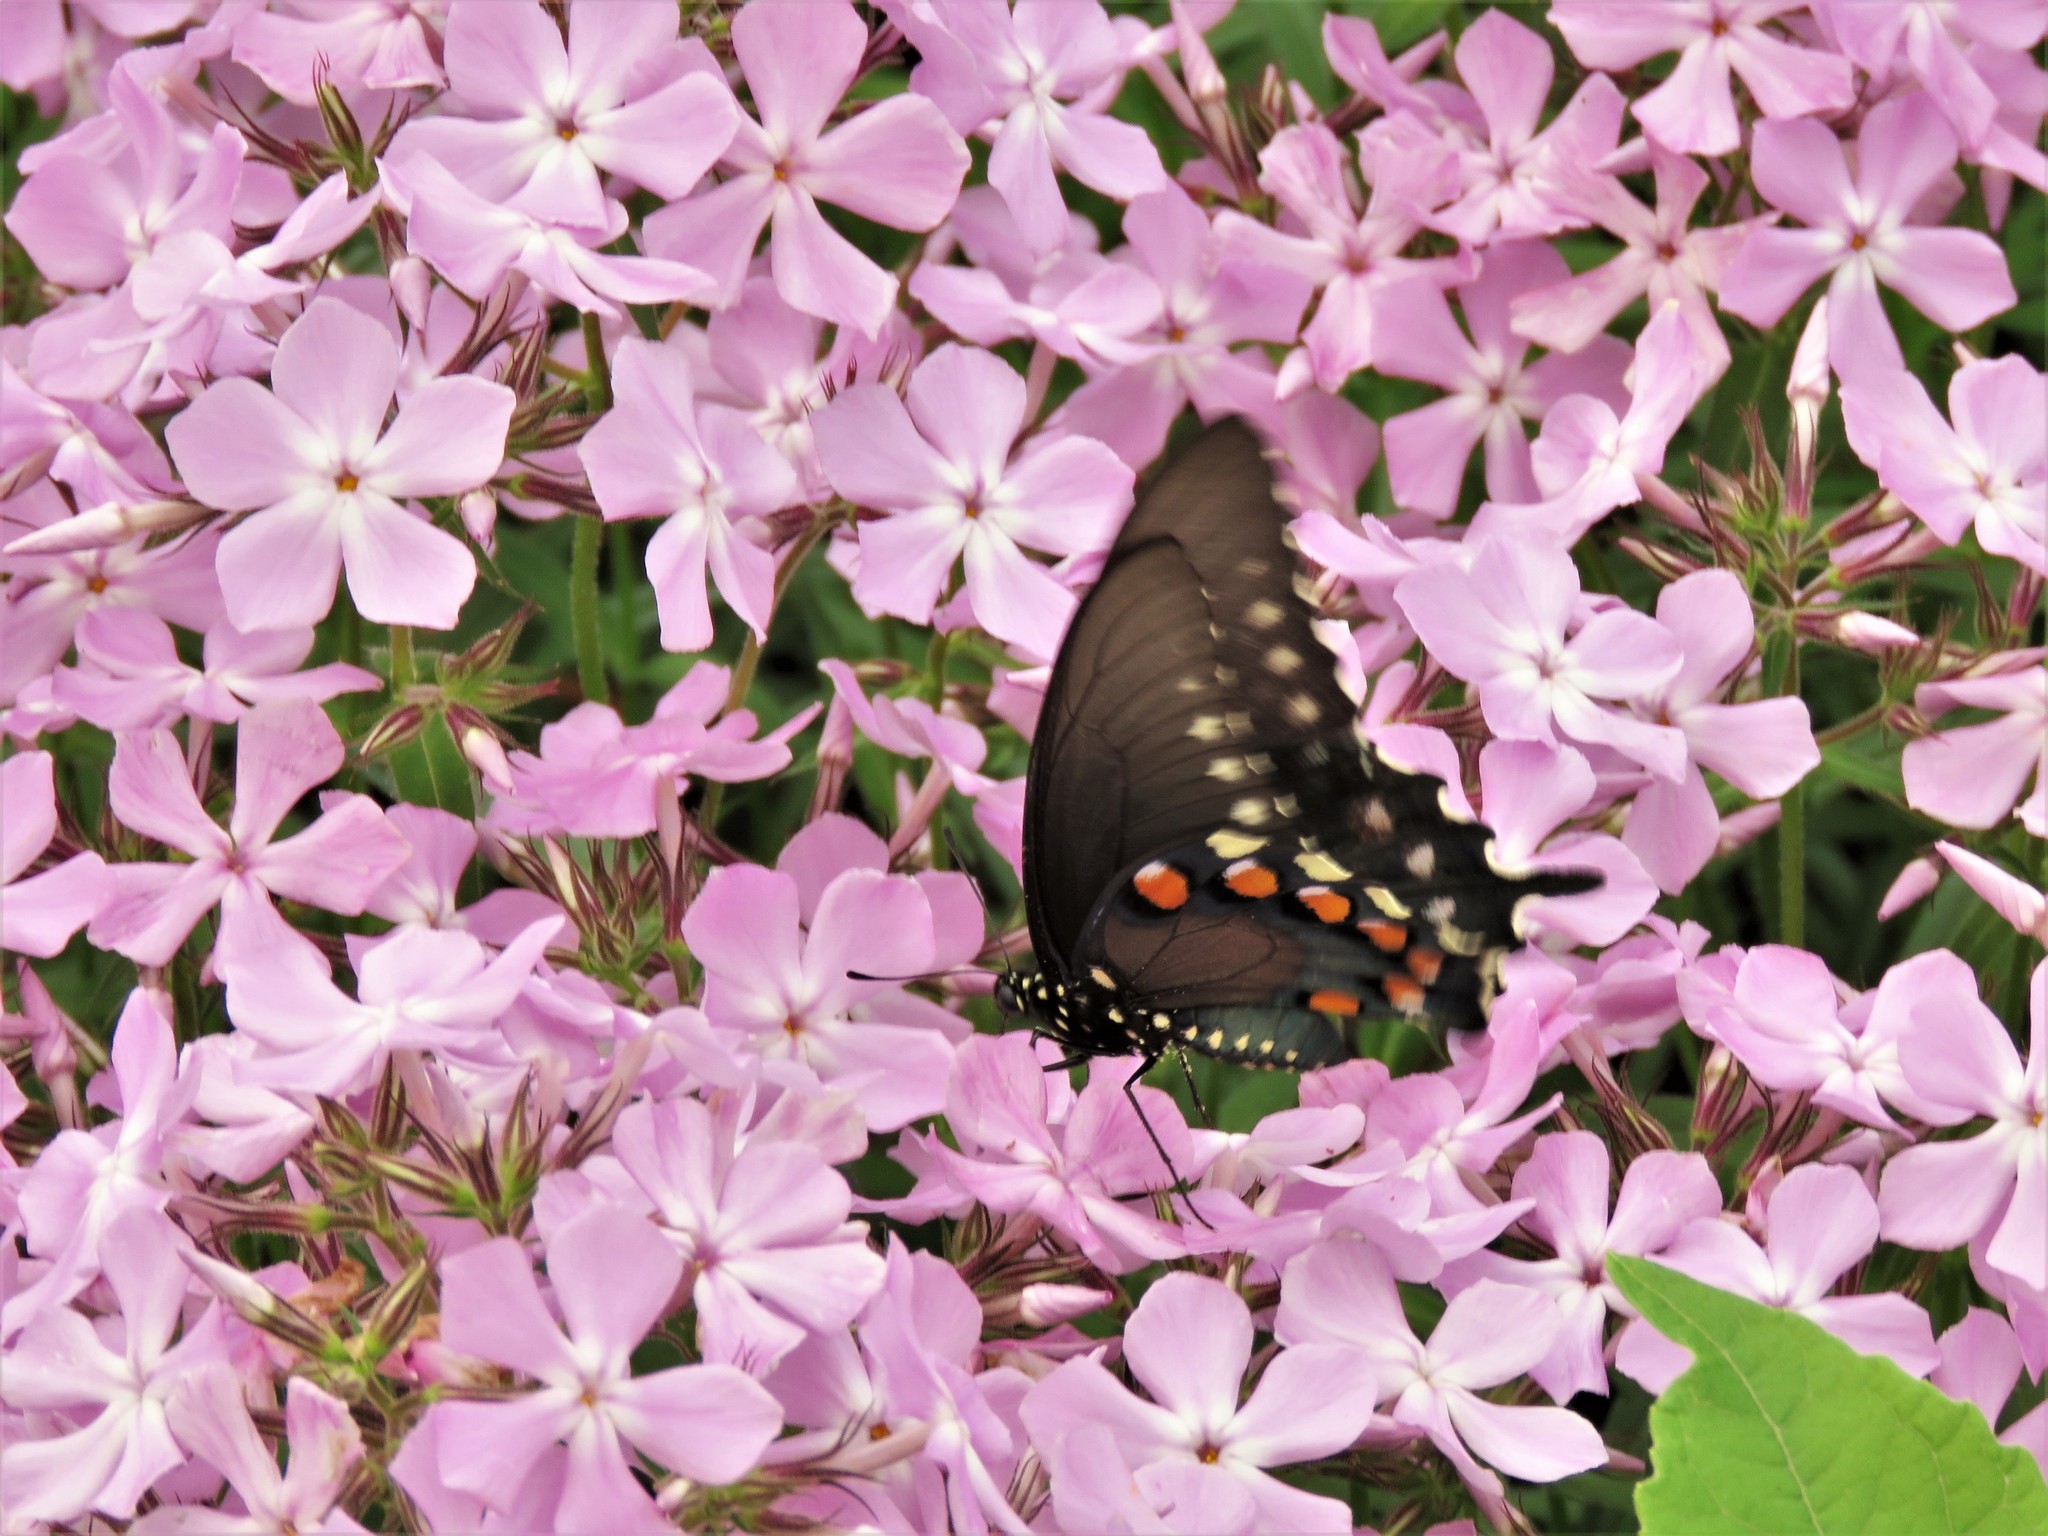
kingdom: Animalia
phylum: Arthropoda
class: Insecta
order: Lepidoptera
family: Papilionidae
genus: Battus
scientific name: Battus philenor
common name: Pipevine swallowtail
